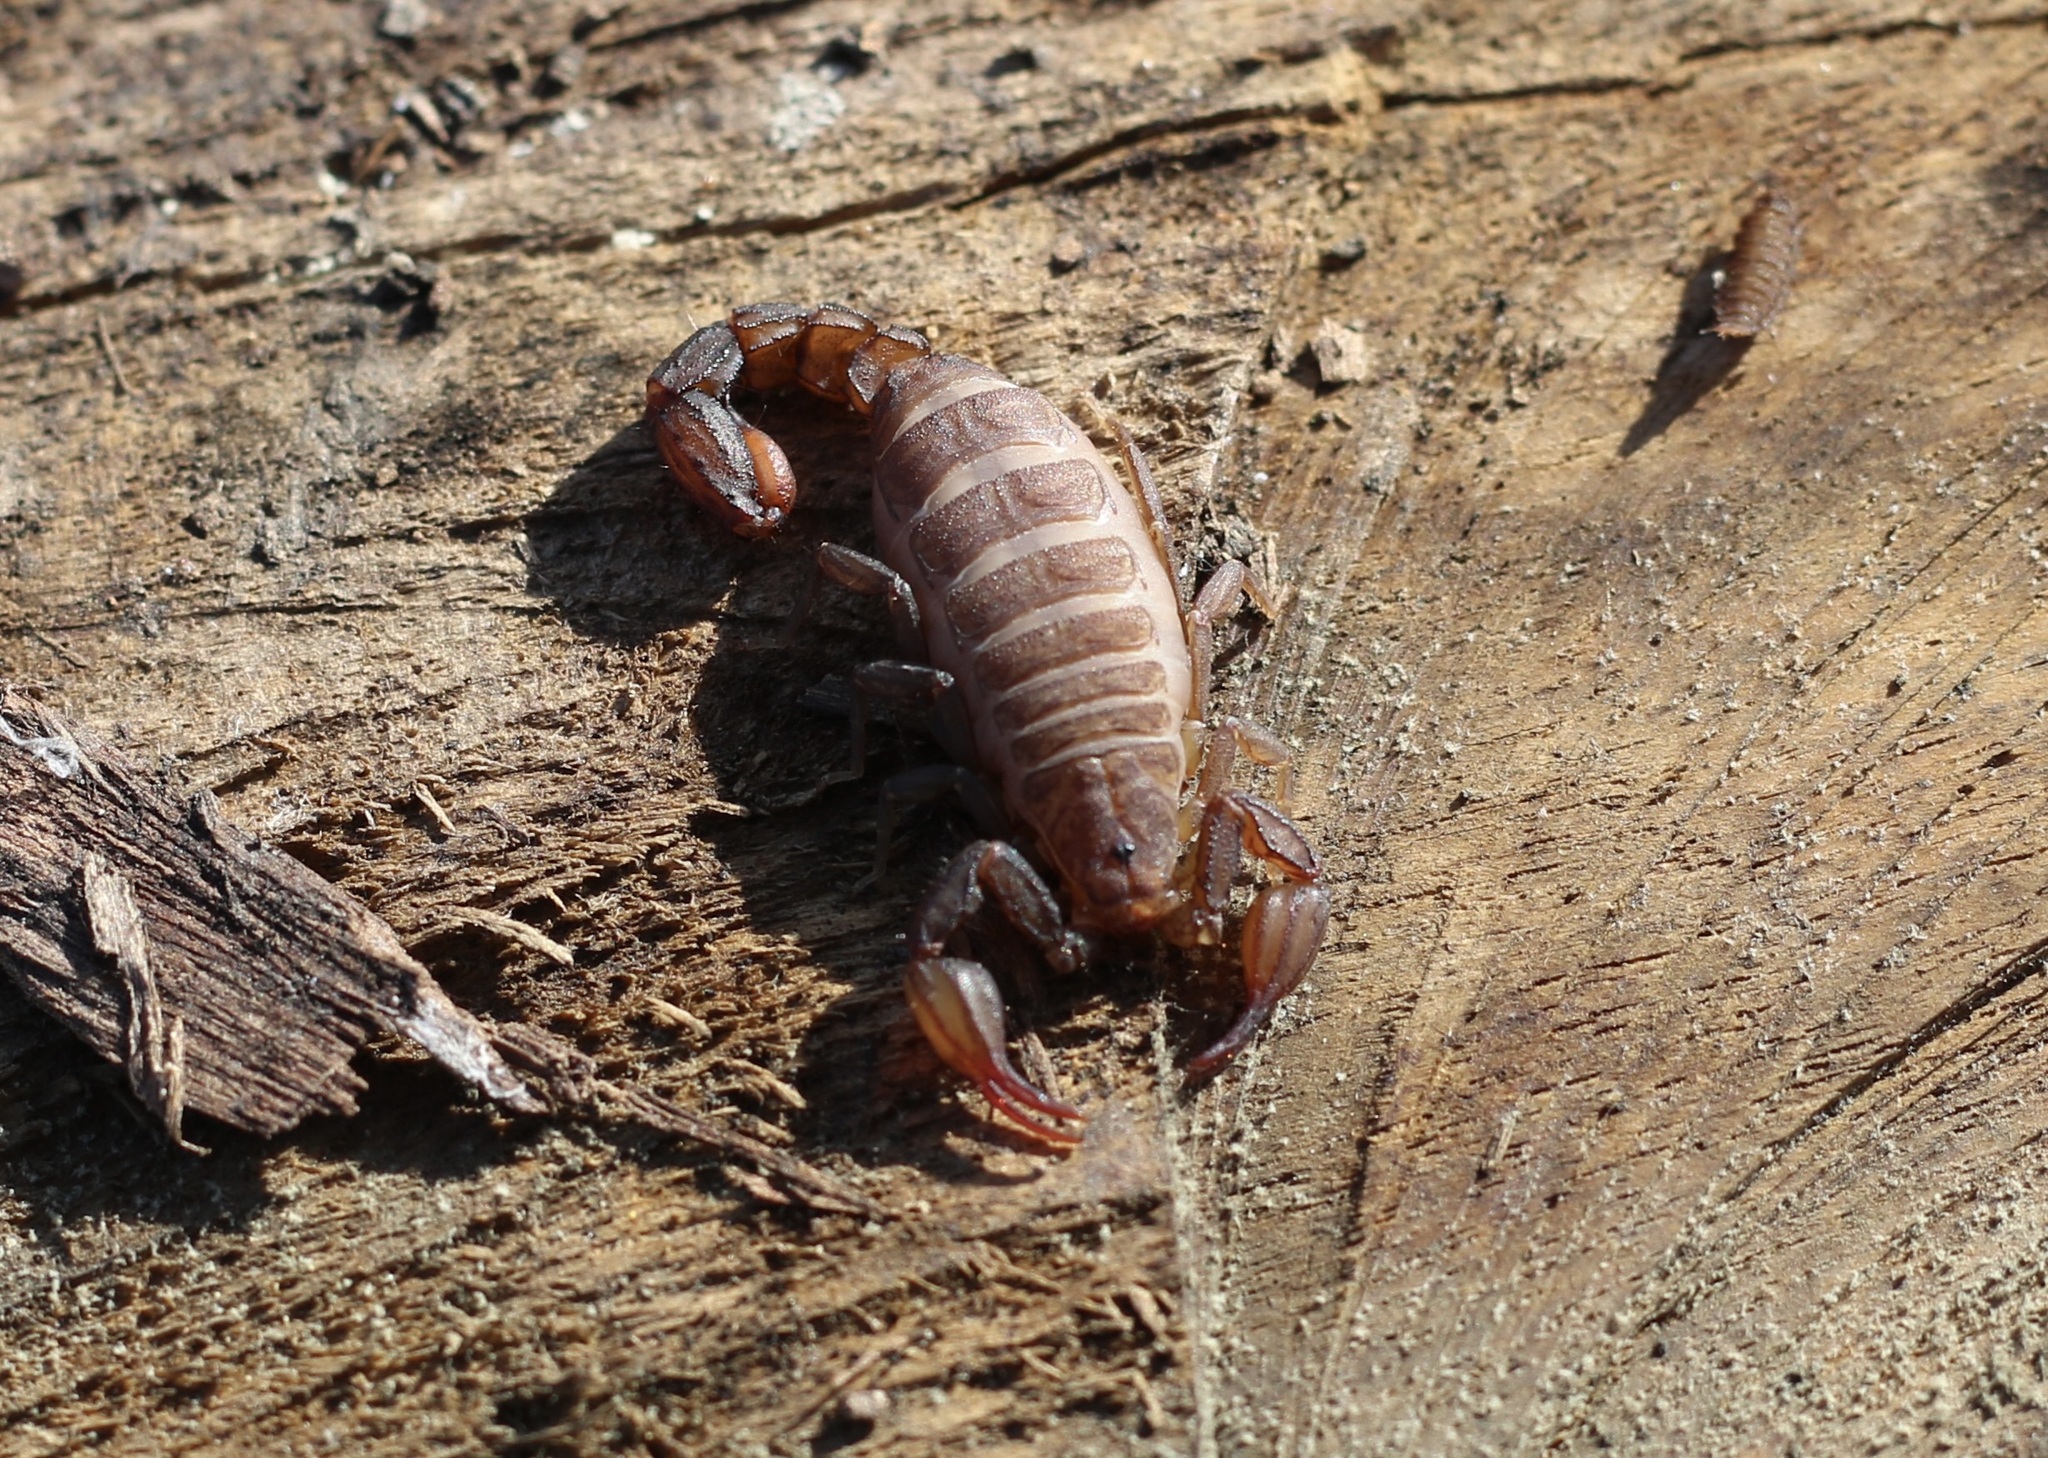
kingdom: Animalia
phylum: Arthropoda
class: Arachnida
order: Scorpiones
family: Vaejovidae
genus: Catalinia
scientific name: Catalinia thompsoni
